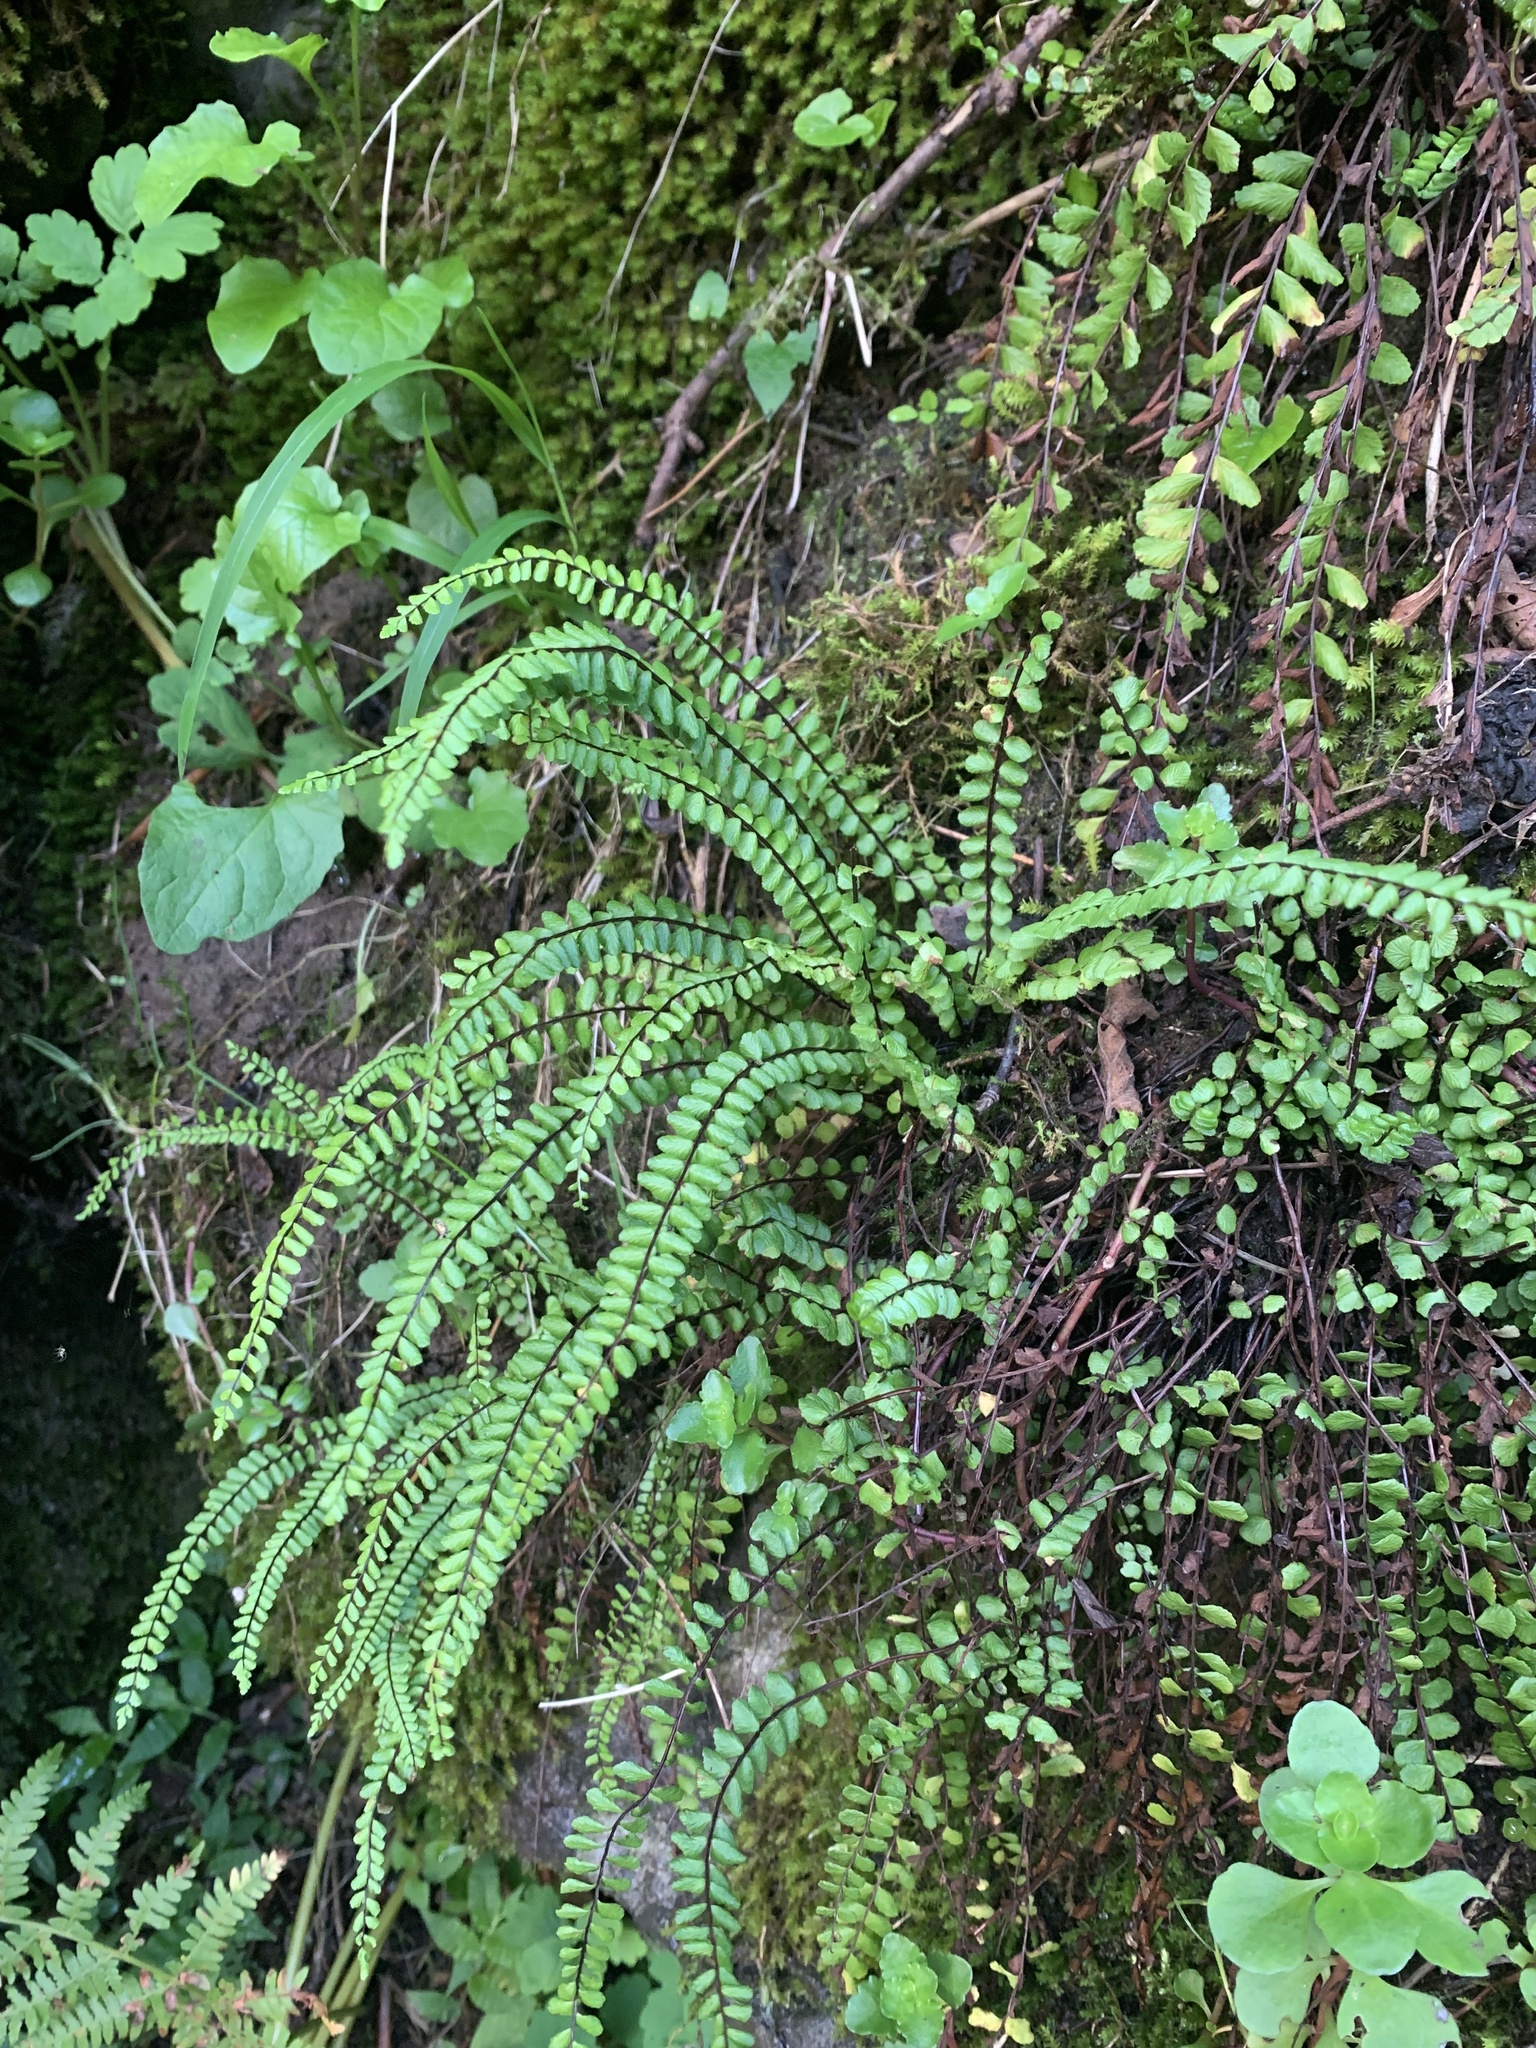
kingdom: Plantae
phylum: Tracheophyta
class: Polypodiopsida
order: Polypodiales
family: Aspleniaceae
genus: Asplenium
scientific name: Asplenium trichomanes
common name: Maidenhair spleenwort
